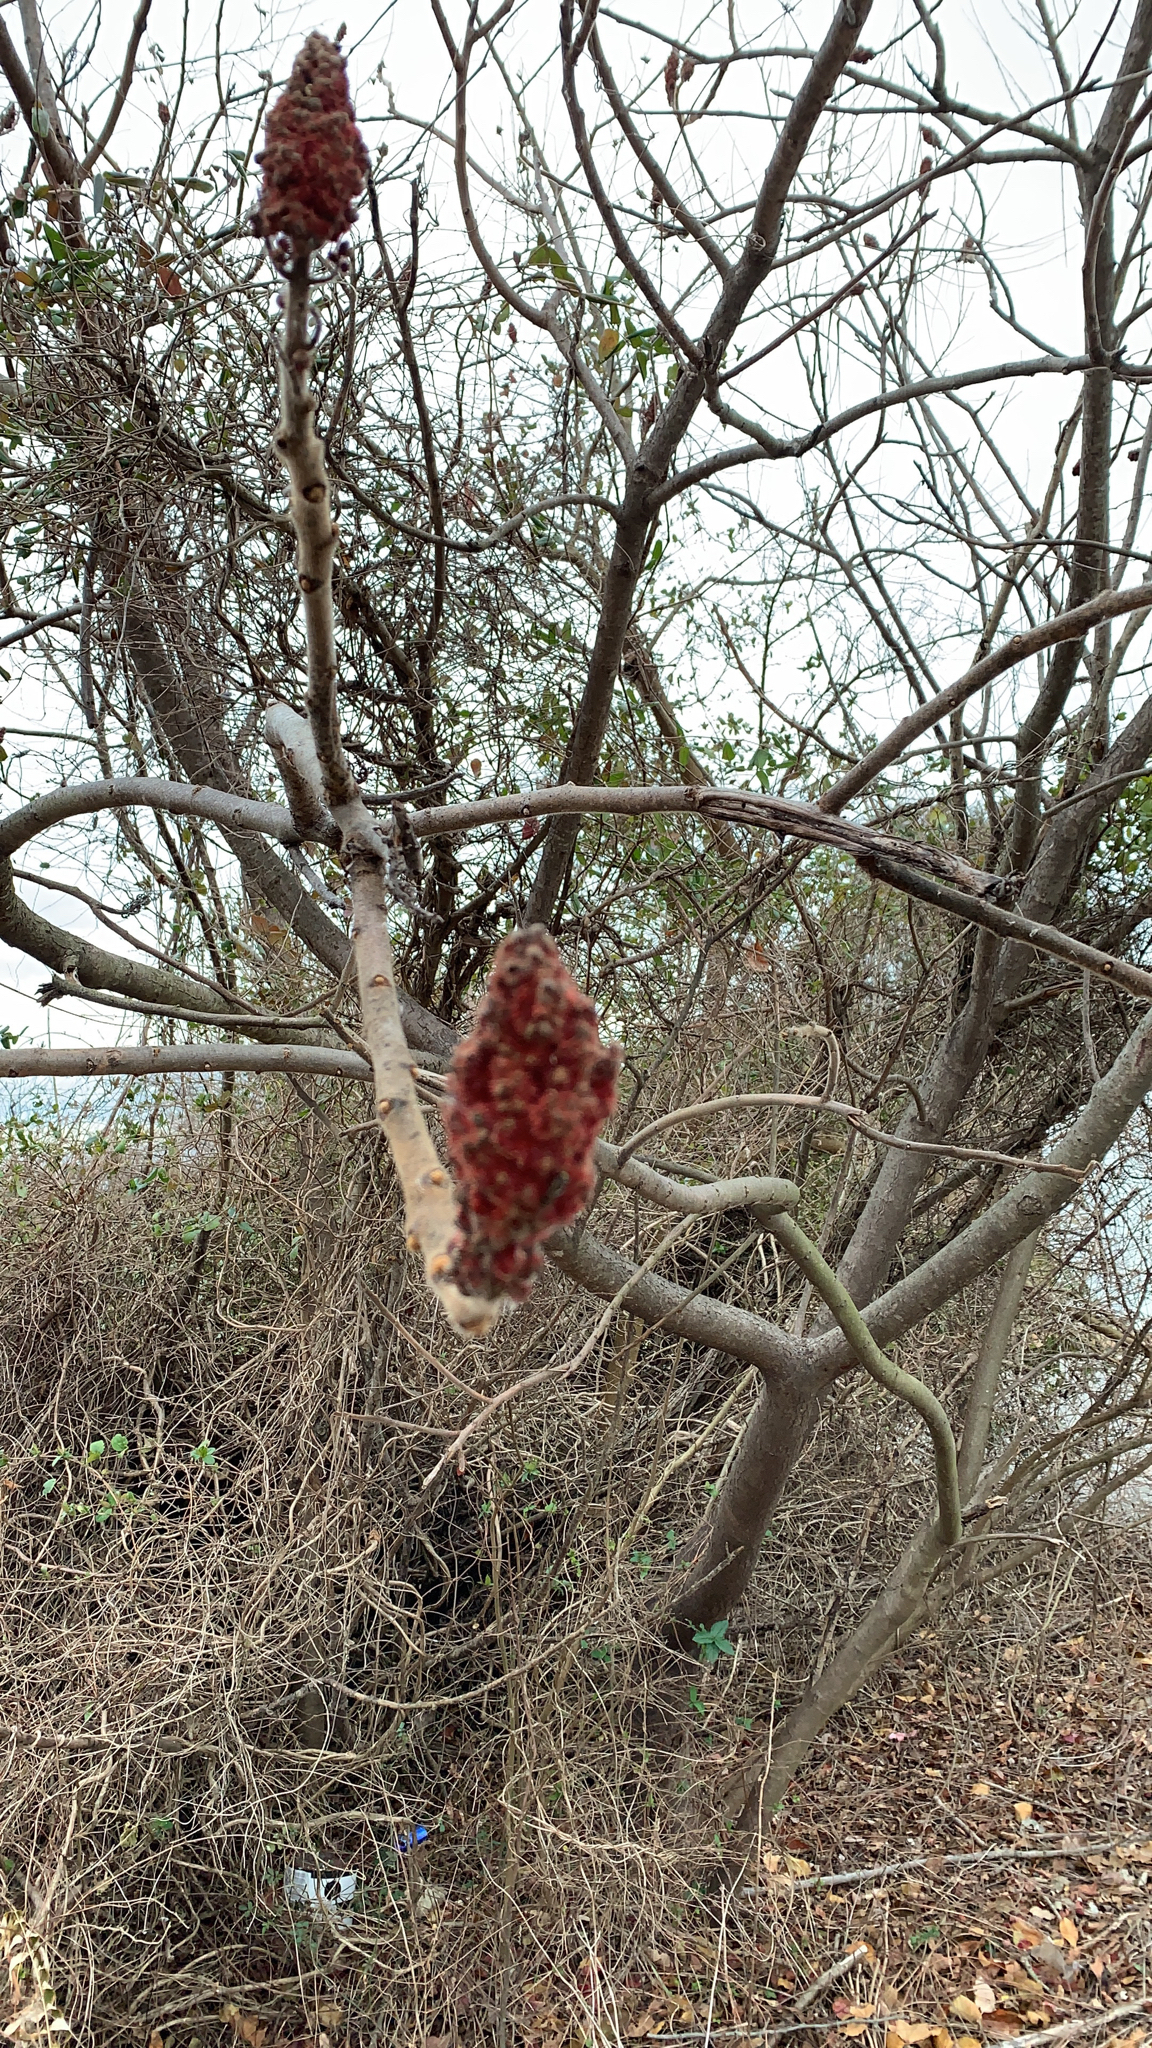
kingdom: Plantae
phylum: Tracheophyta
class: Magnoliopsida
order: Sapindales
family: Anacardiaceae
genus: Rhus
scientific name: Rhus typhina
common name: Staghorn sumac
